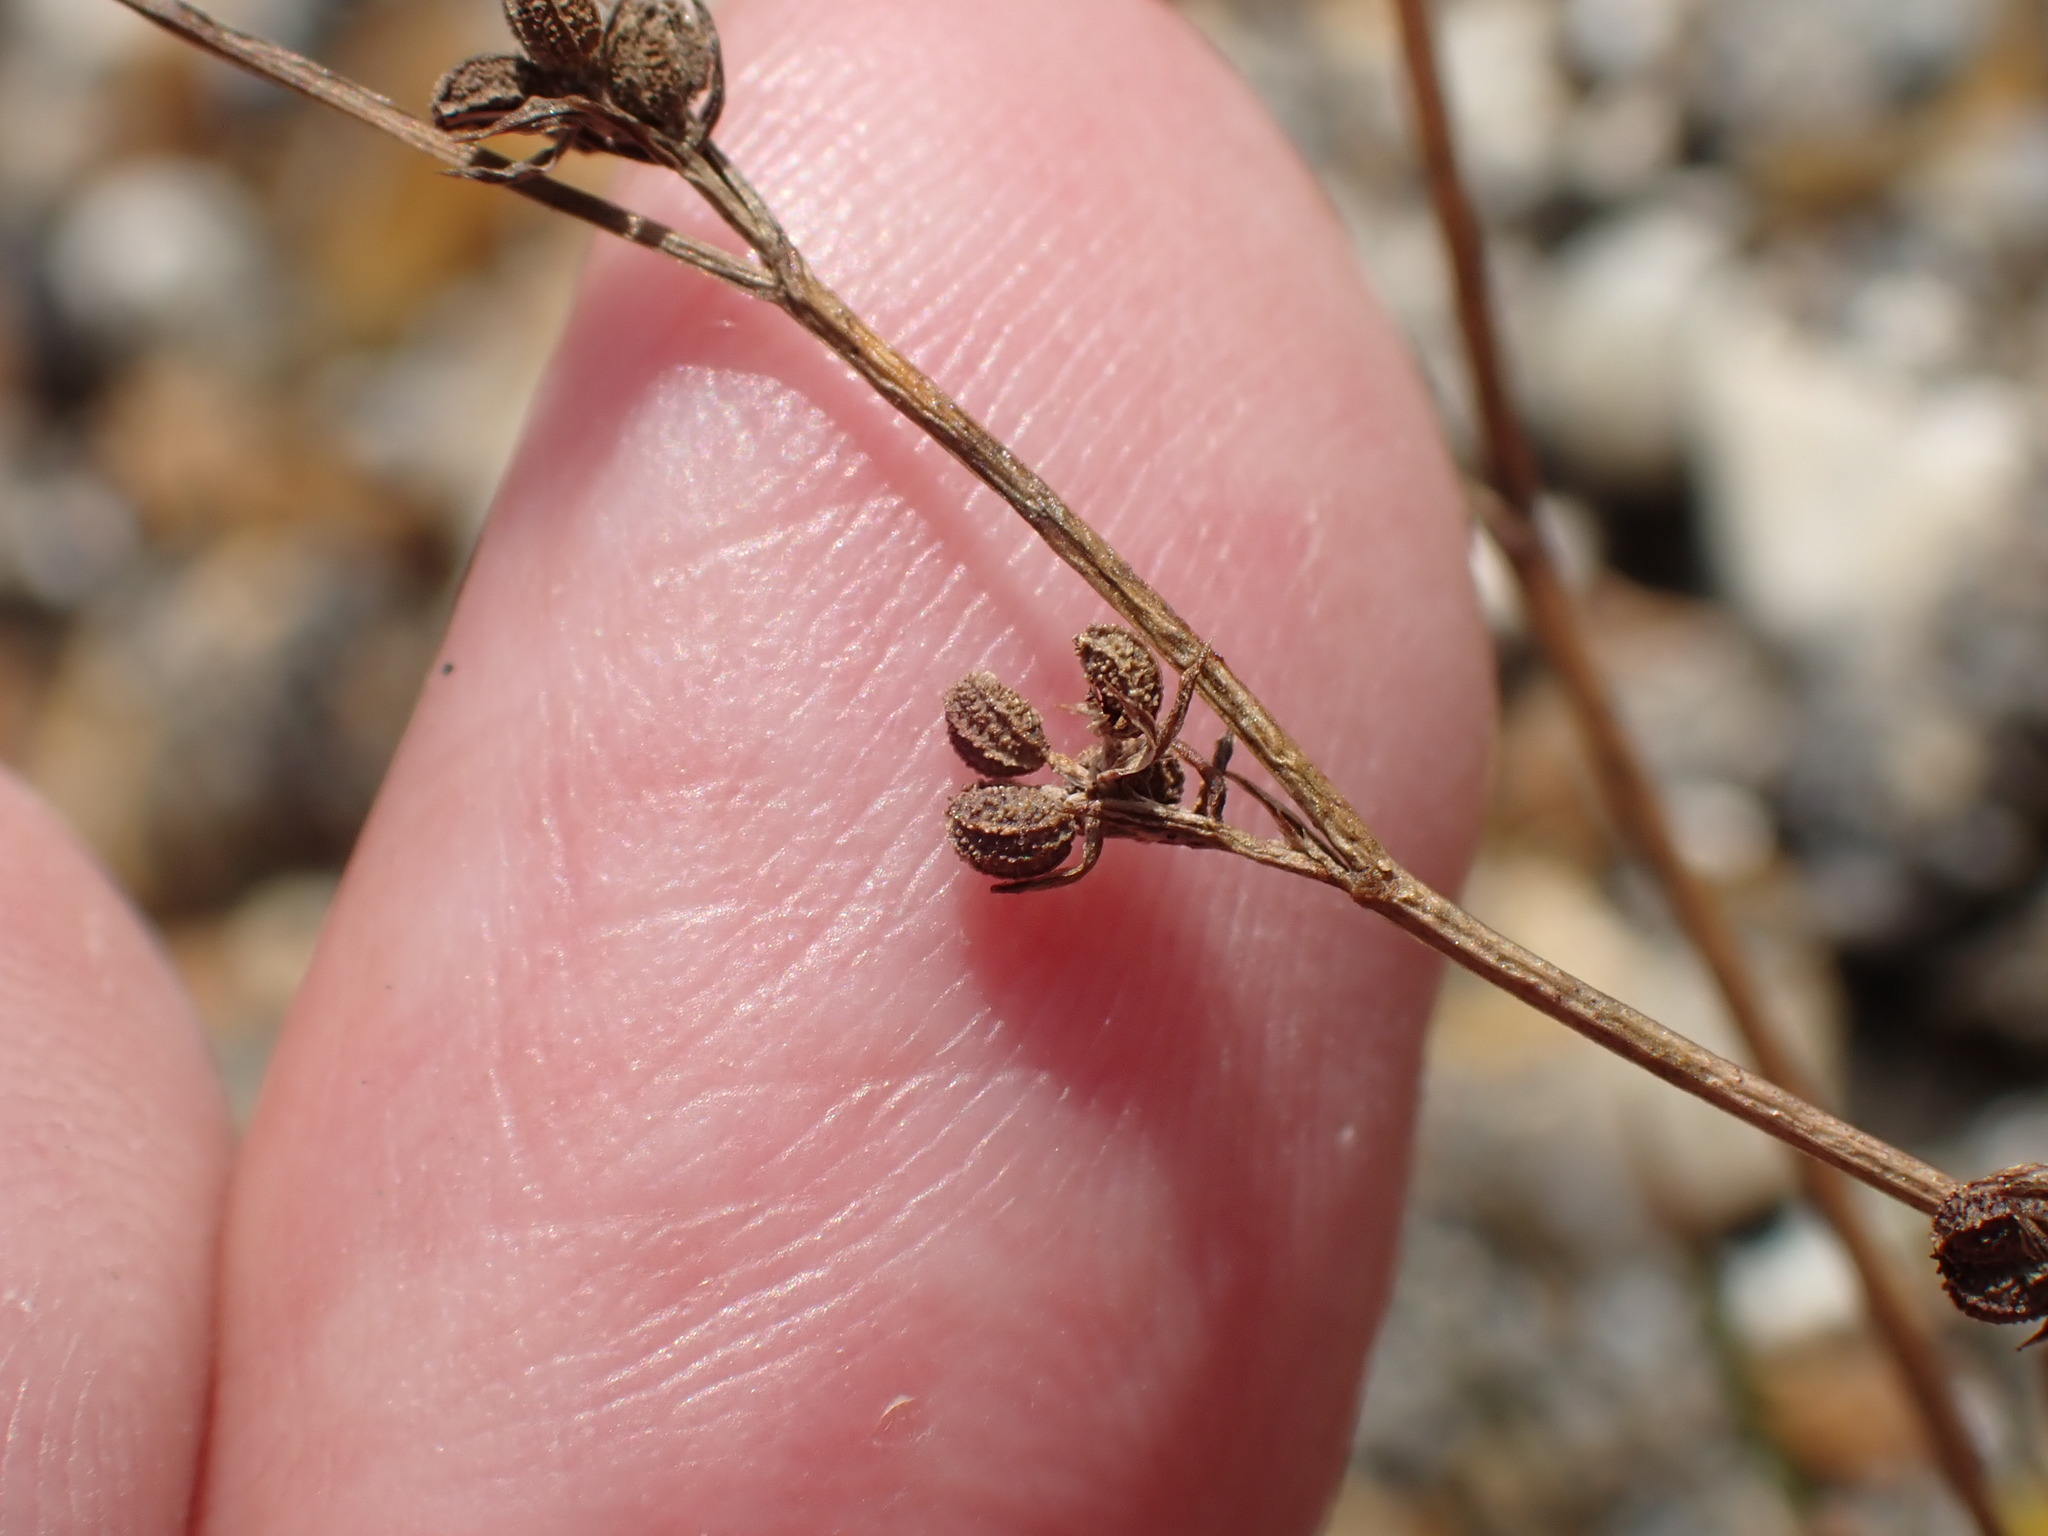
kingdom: Plantae
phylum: Tracheophyta
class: Magnoliopsida
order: Apiales
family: Apiaceae
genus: Bupleurum
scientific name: Bupleurum tenuissimum
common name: Slender hare's-ear
